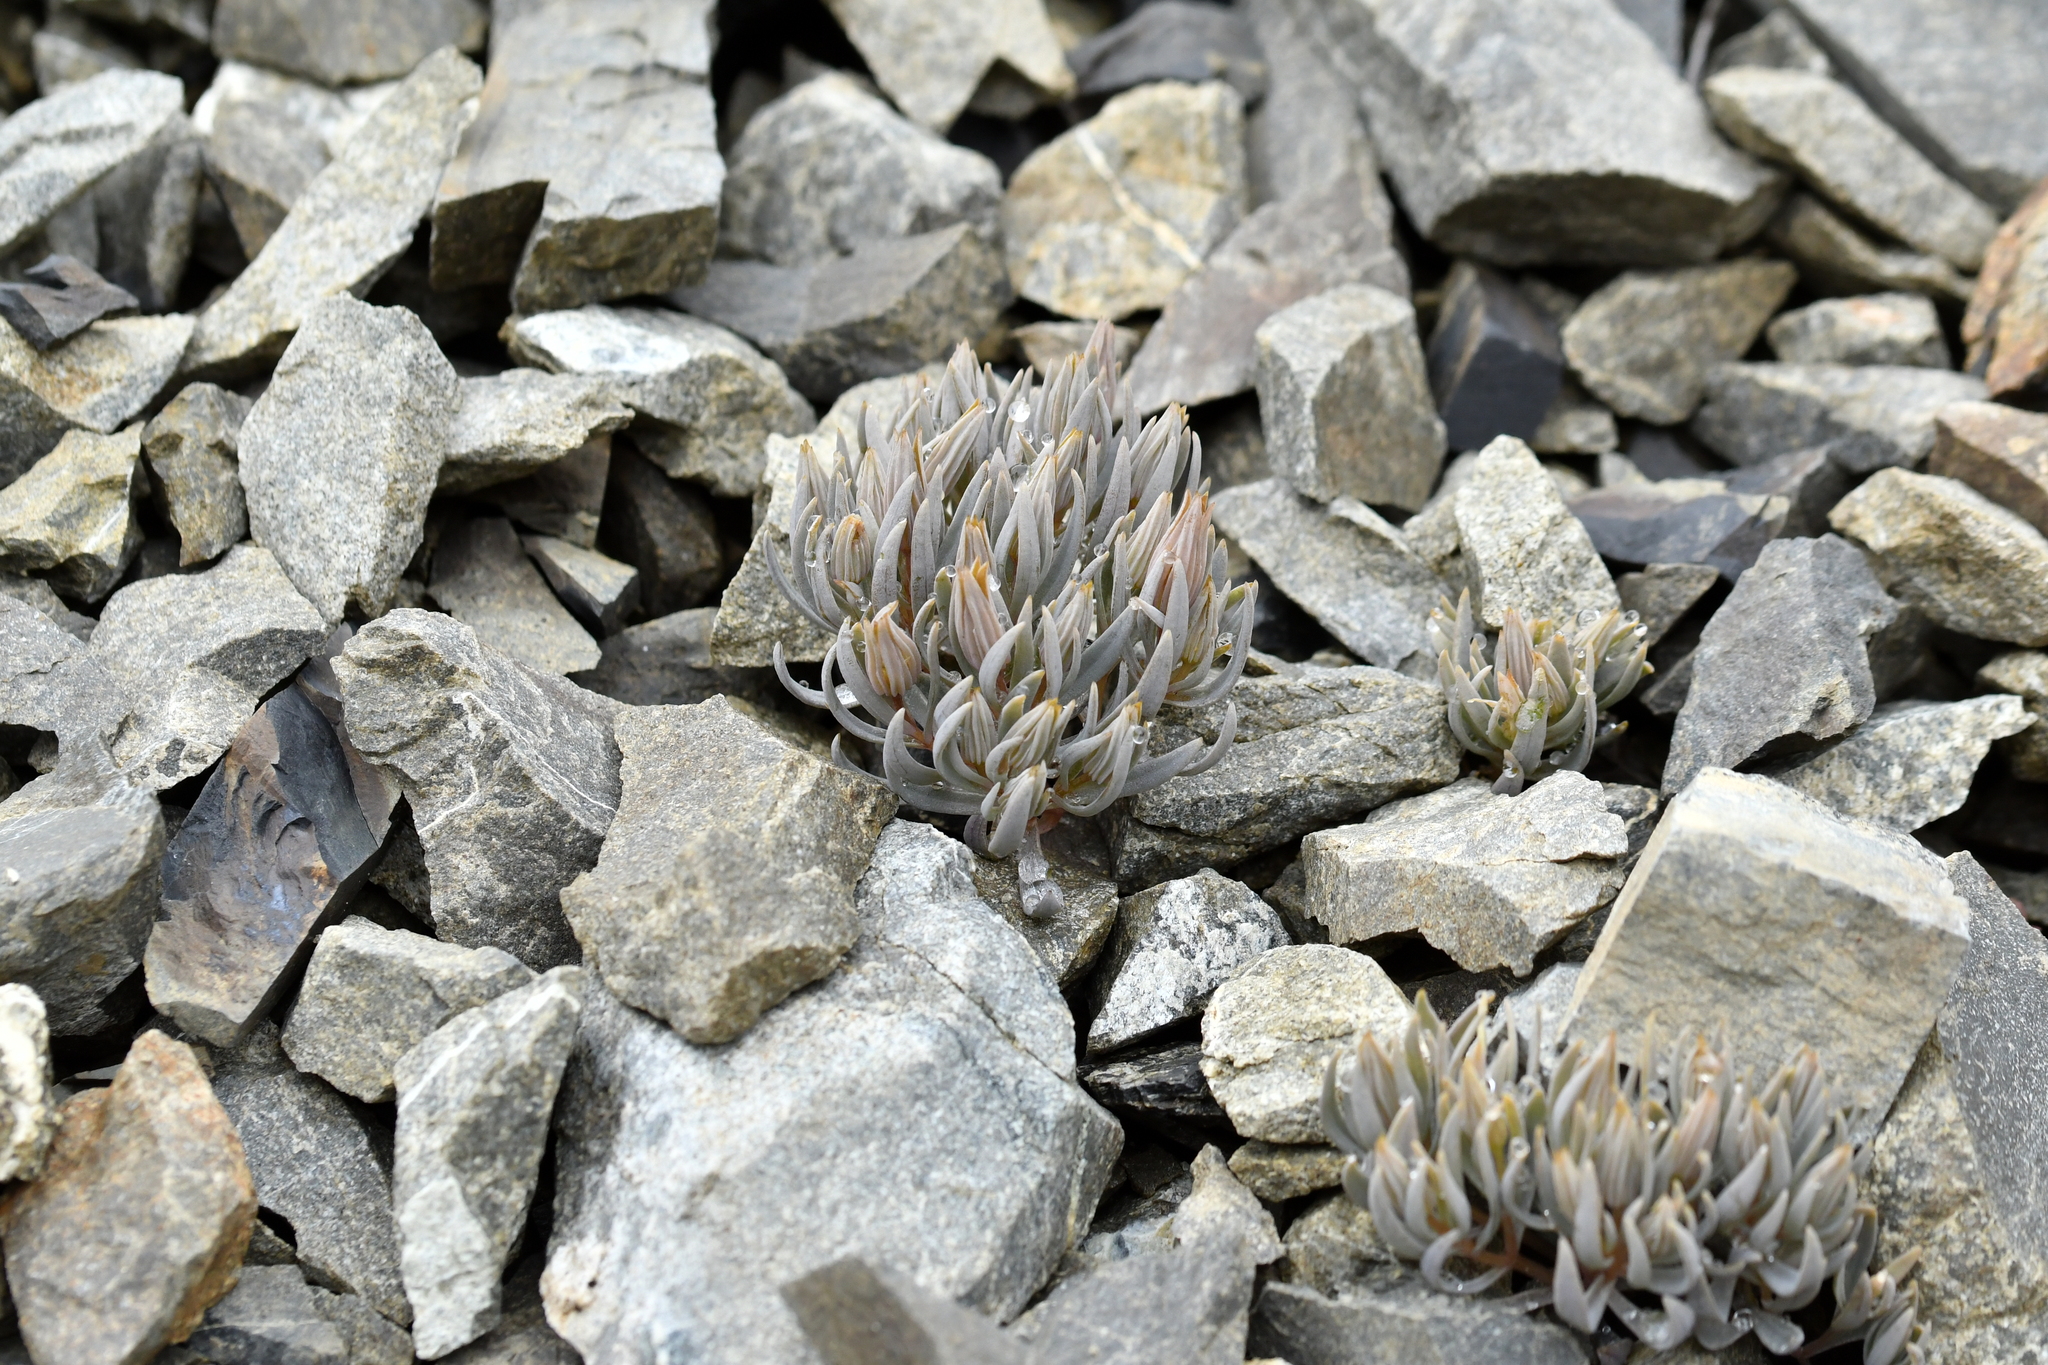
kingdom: Plantae
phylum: Tracheophyta
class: Magnoliopsida
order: Caryophyllales
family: Caryophyllaceae
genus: Stellaria
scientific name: Stellaria roughii
